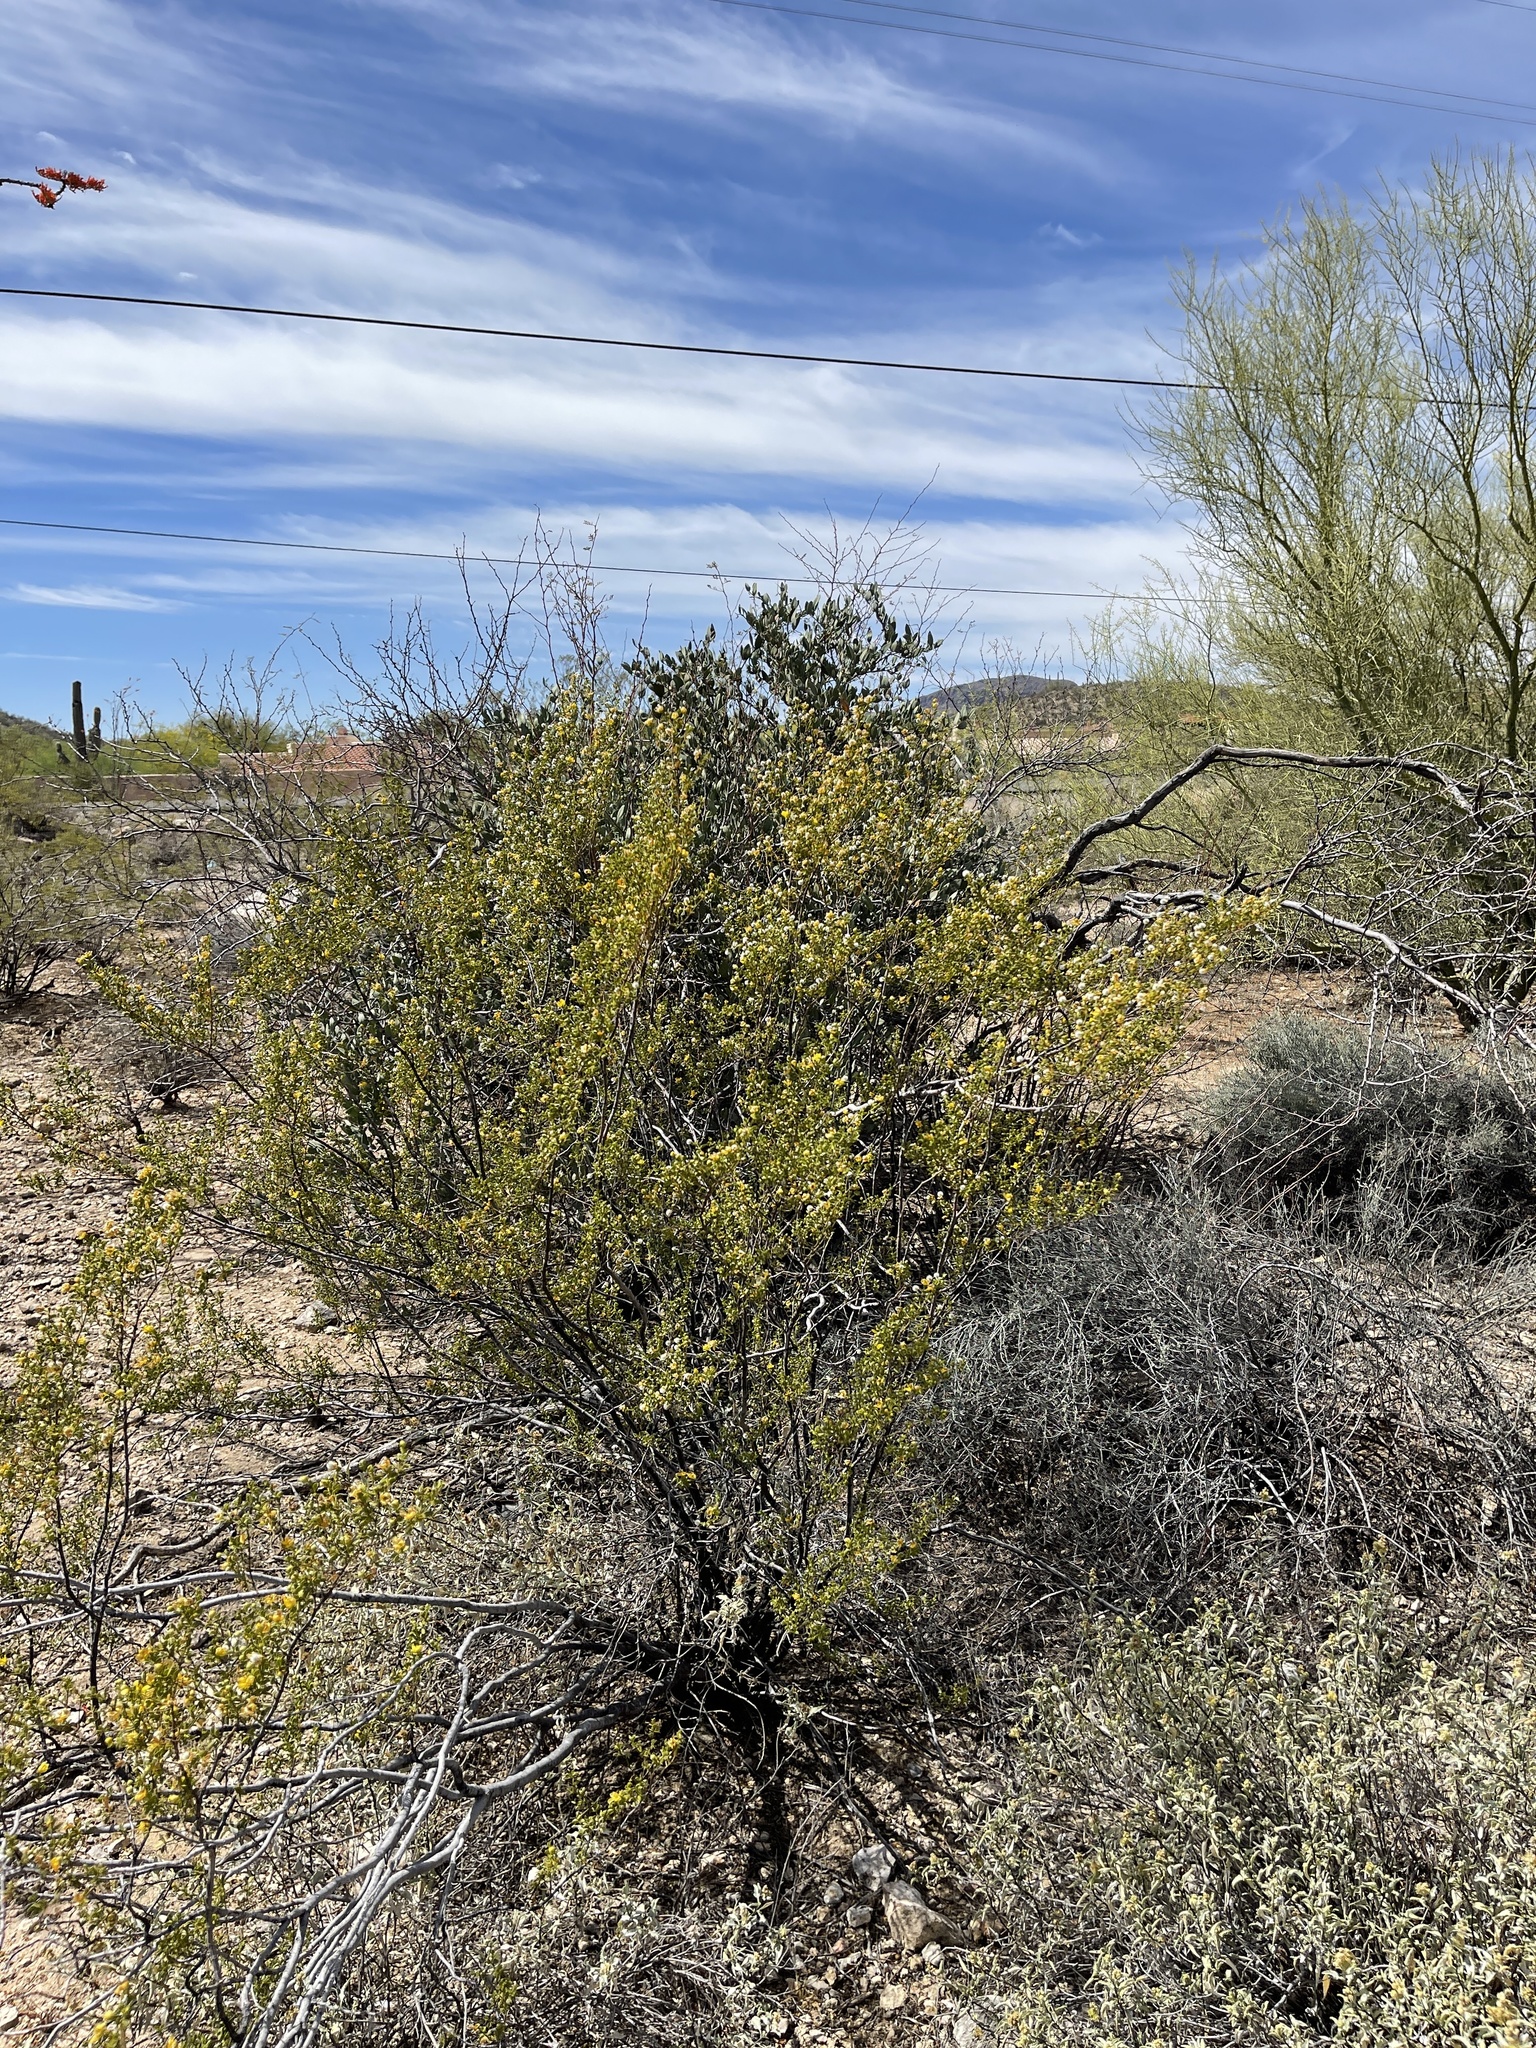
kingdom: Plantae
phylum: Tracheophyta
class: Magnoliopsida
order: Zygophyllales
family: Zygophyllaceae
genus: Larrea
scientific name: Larrea tridentata
